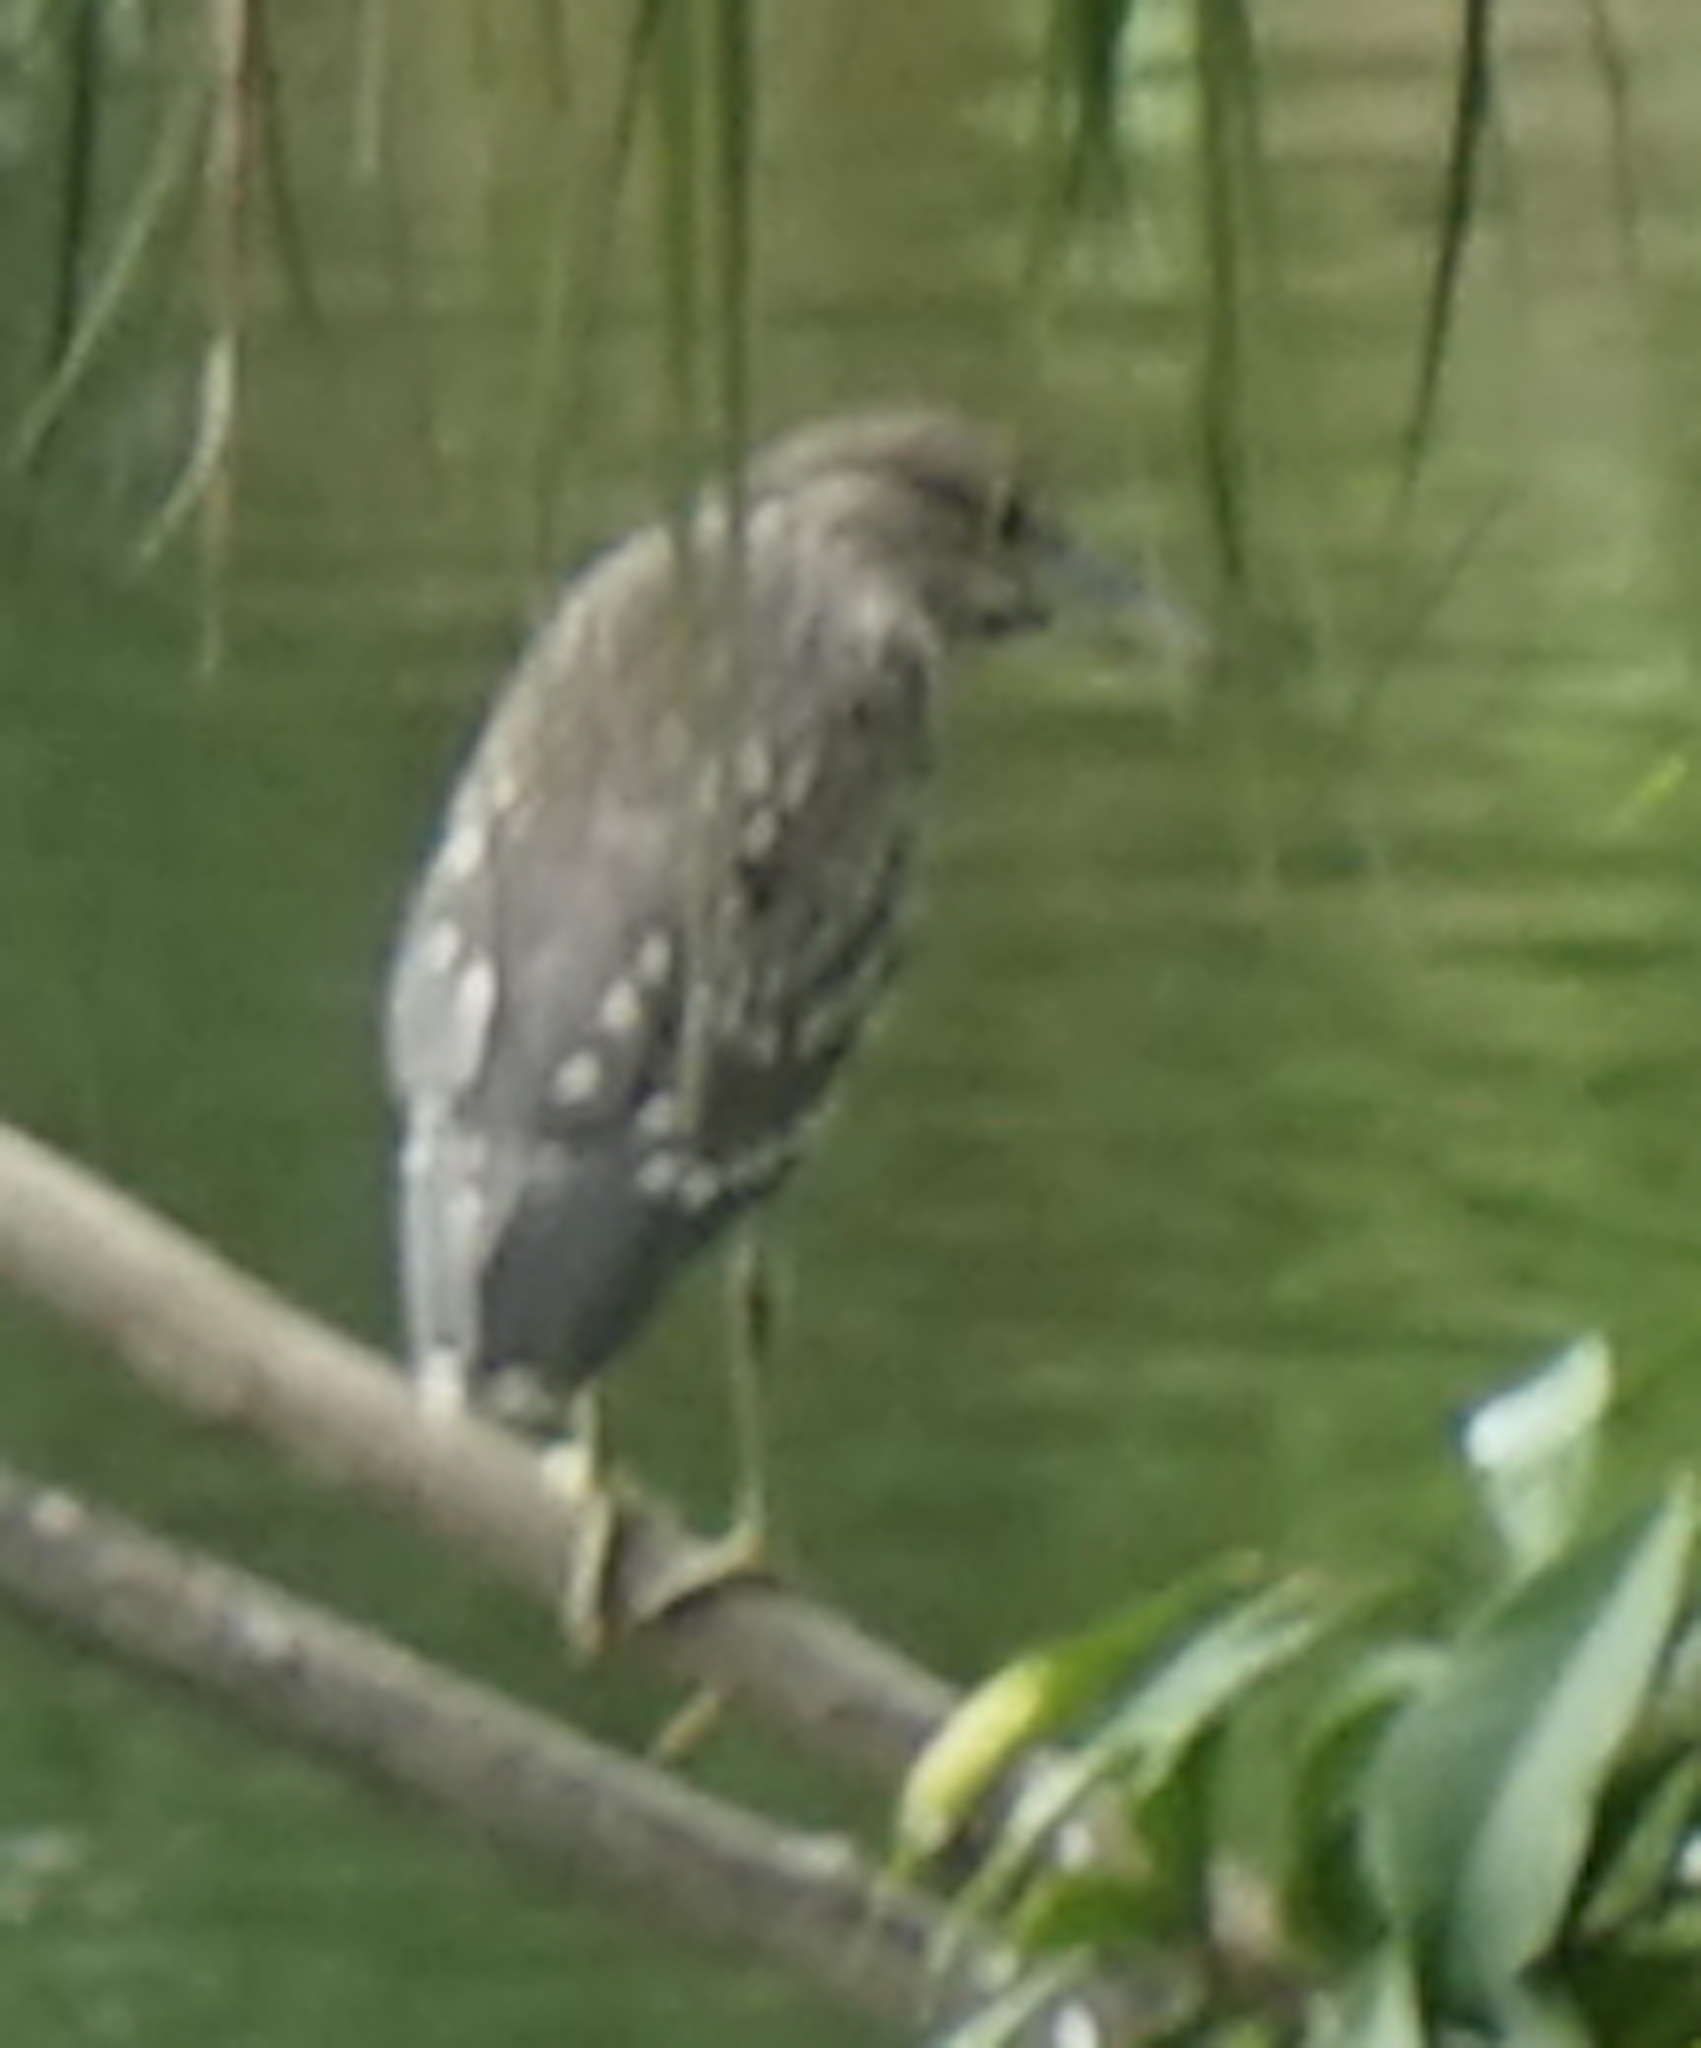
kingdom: Animalia
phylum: Chordata
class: Aves
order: Pelecaniformes
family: Ardeidae
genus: Nycticorax
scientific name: Nycticorax nycticorax
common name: Black-crowned night heron
